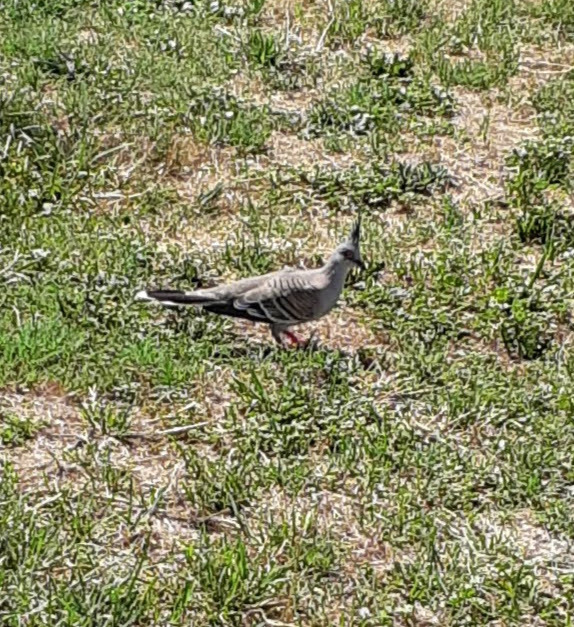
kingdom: Animalia
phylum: Chordata
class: Aves
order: Columbiformes
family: Columbidae
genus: Ocyphaps
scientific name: Ocyphaps lophotes
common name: Crested pigeon
